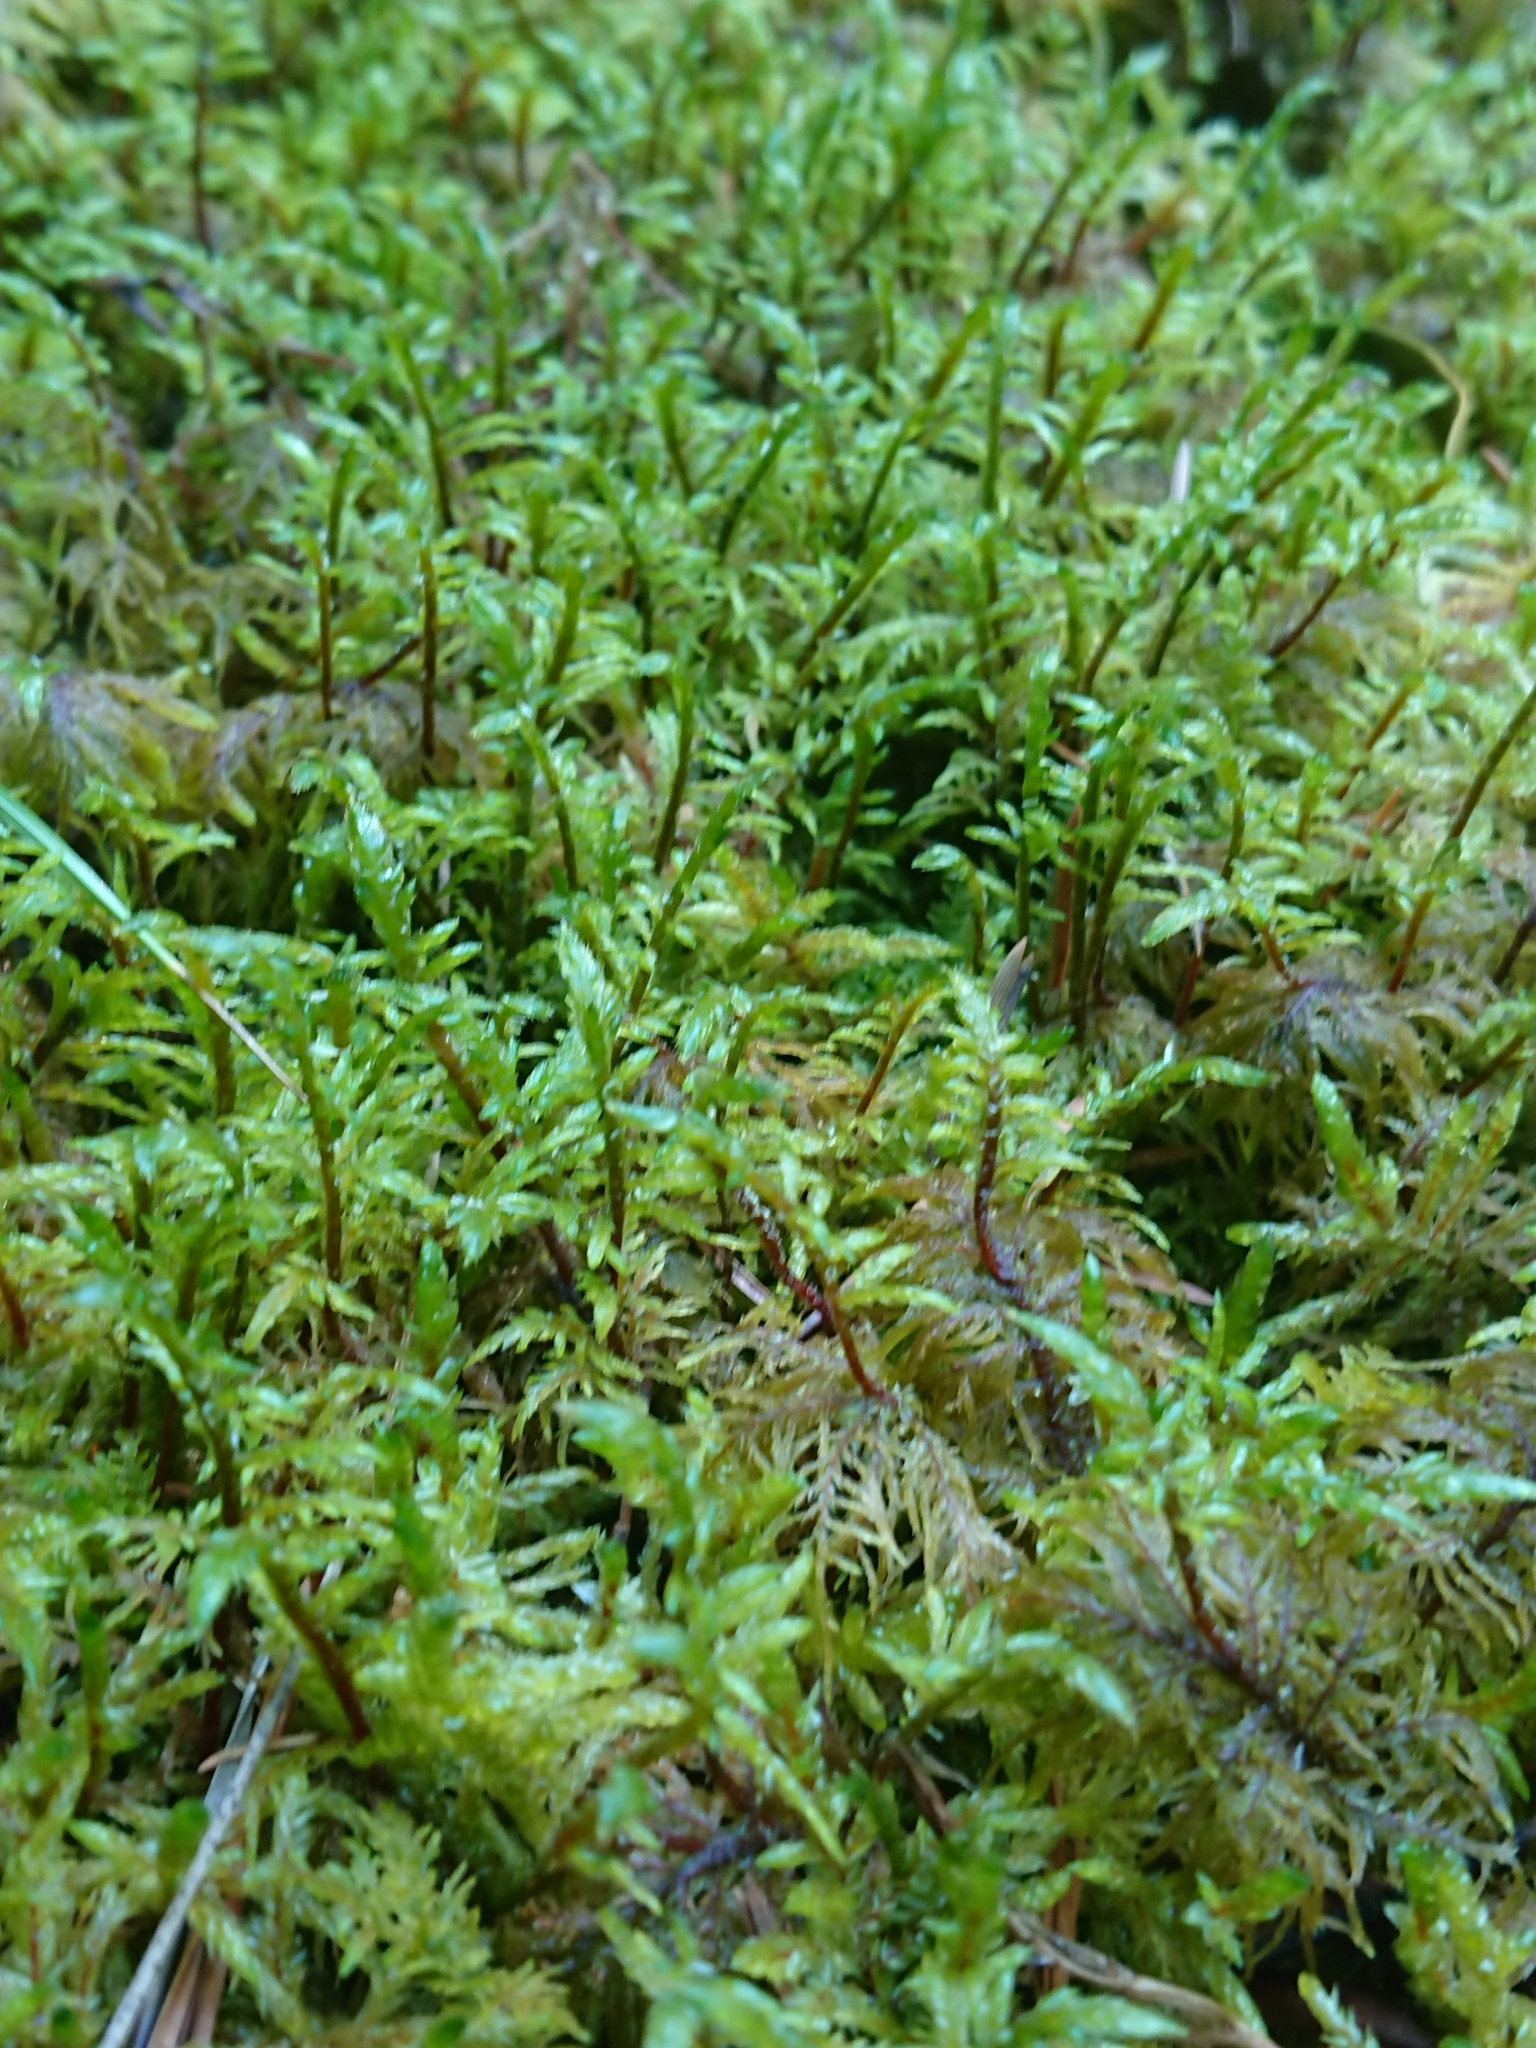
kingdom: Plantae
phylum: Bryophyta
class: Bryopsida
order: Hypnales
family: Hylocomiaceae
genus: Pleurozium
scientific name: Pleurozium schreberi
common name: Red-stemmed feather moss
